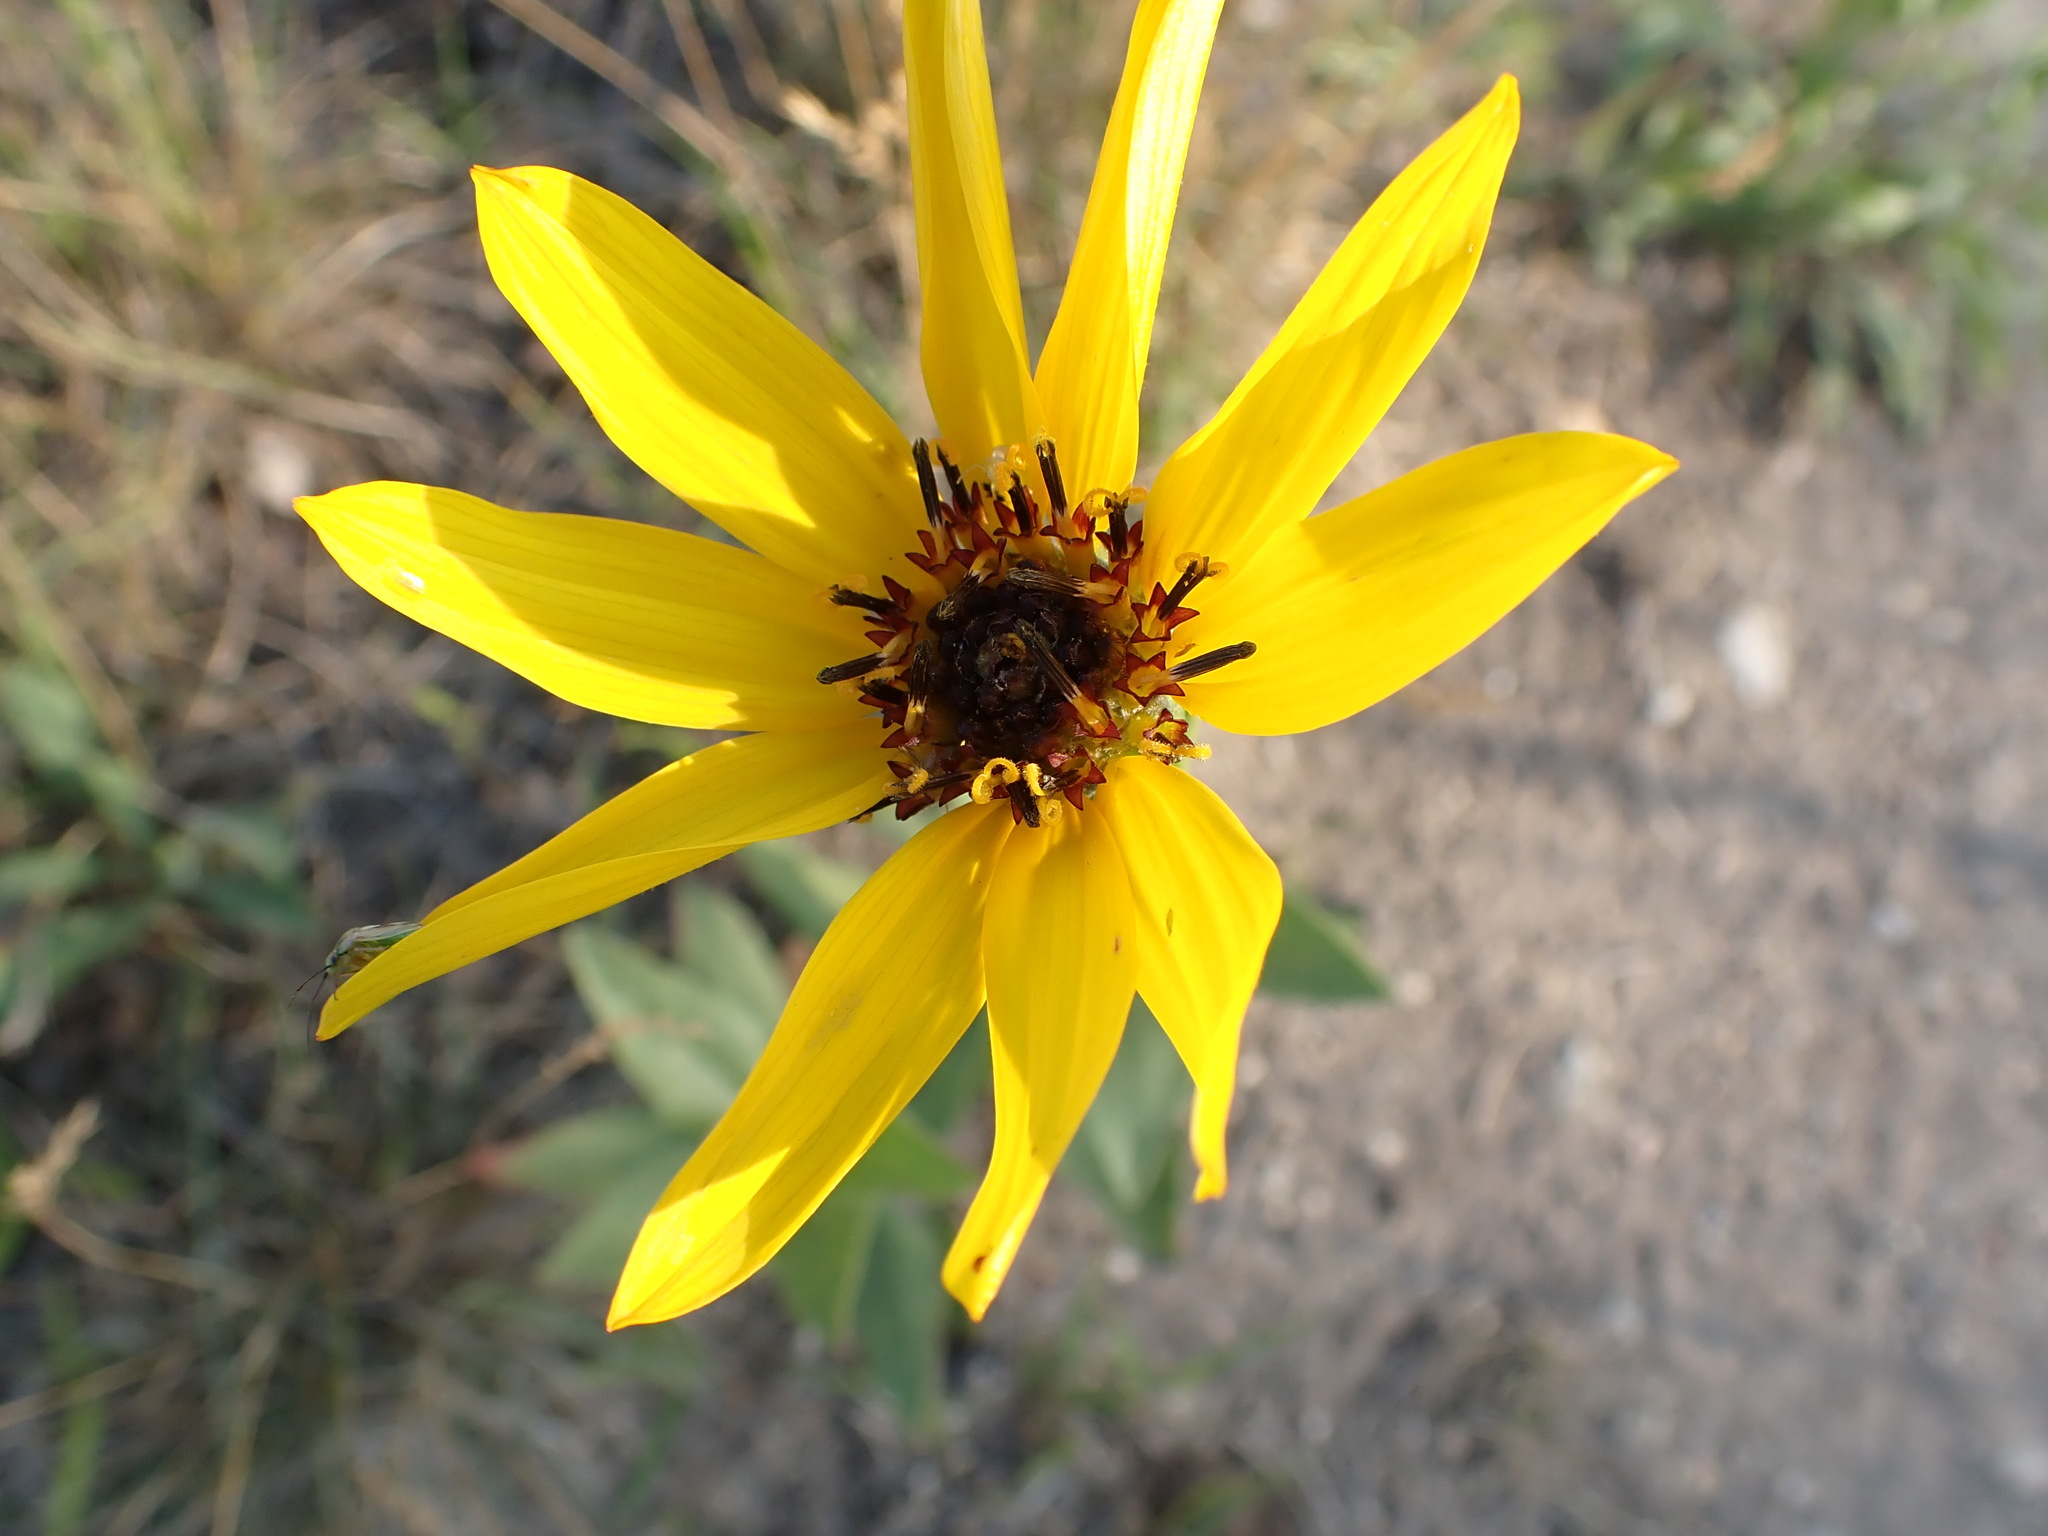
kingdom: Plantae
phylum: Tracheophyta
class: Magnoliopsida
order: Asterales
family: Asteraceae
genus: Helianthus
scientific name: Helianthus pauciflorus
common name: Stiff sunflower
